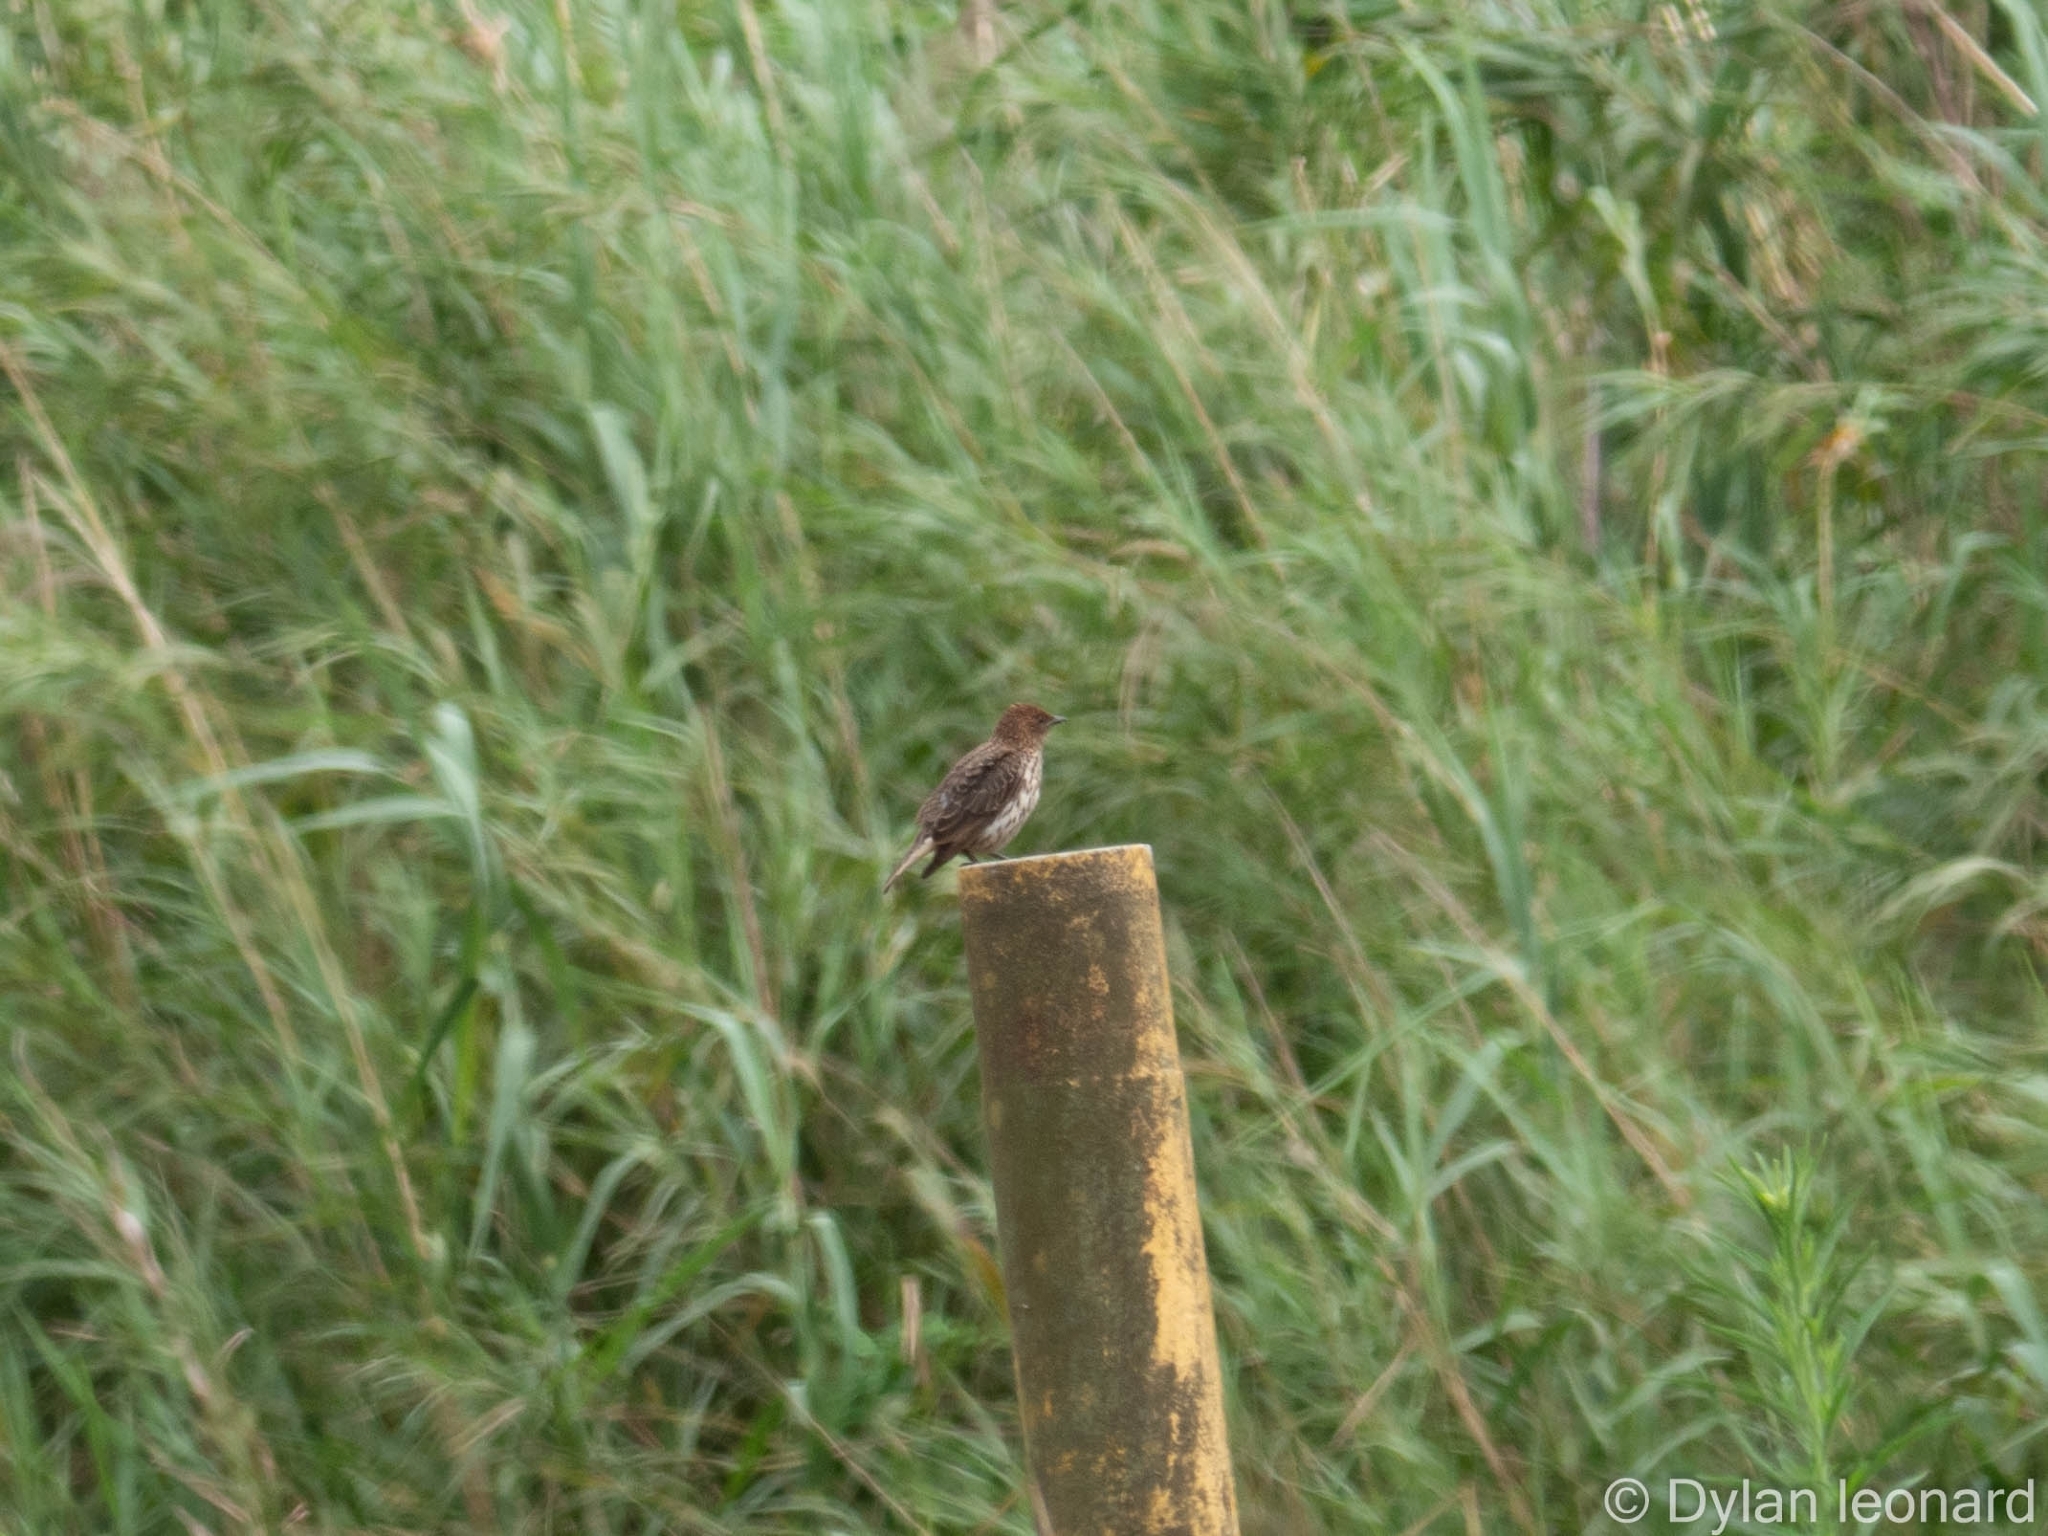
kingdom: Animalia
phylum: Chordata
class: Aves
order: Passeriformes
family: Sturnidae
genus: Cinnyricinclus
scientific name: Cinnyricinclus leucogaster
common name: Violet-backed starling
